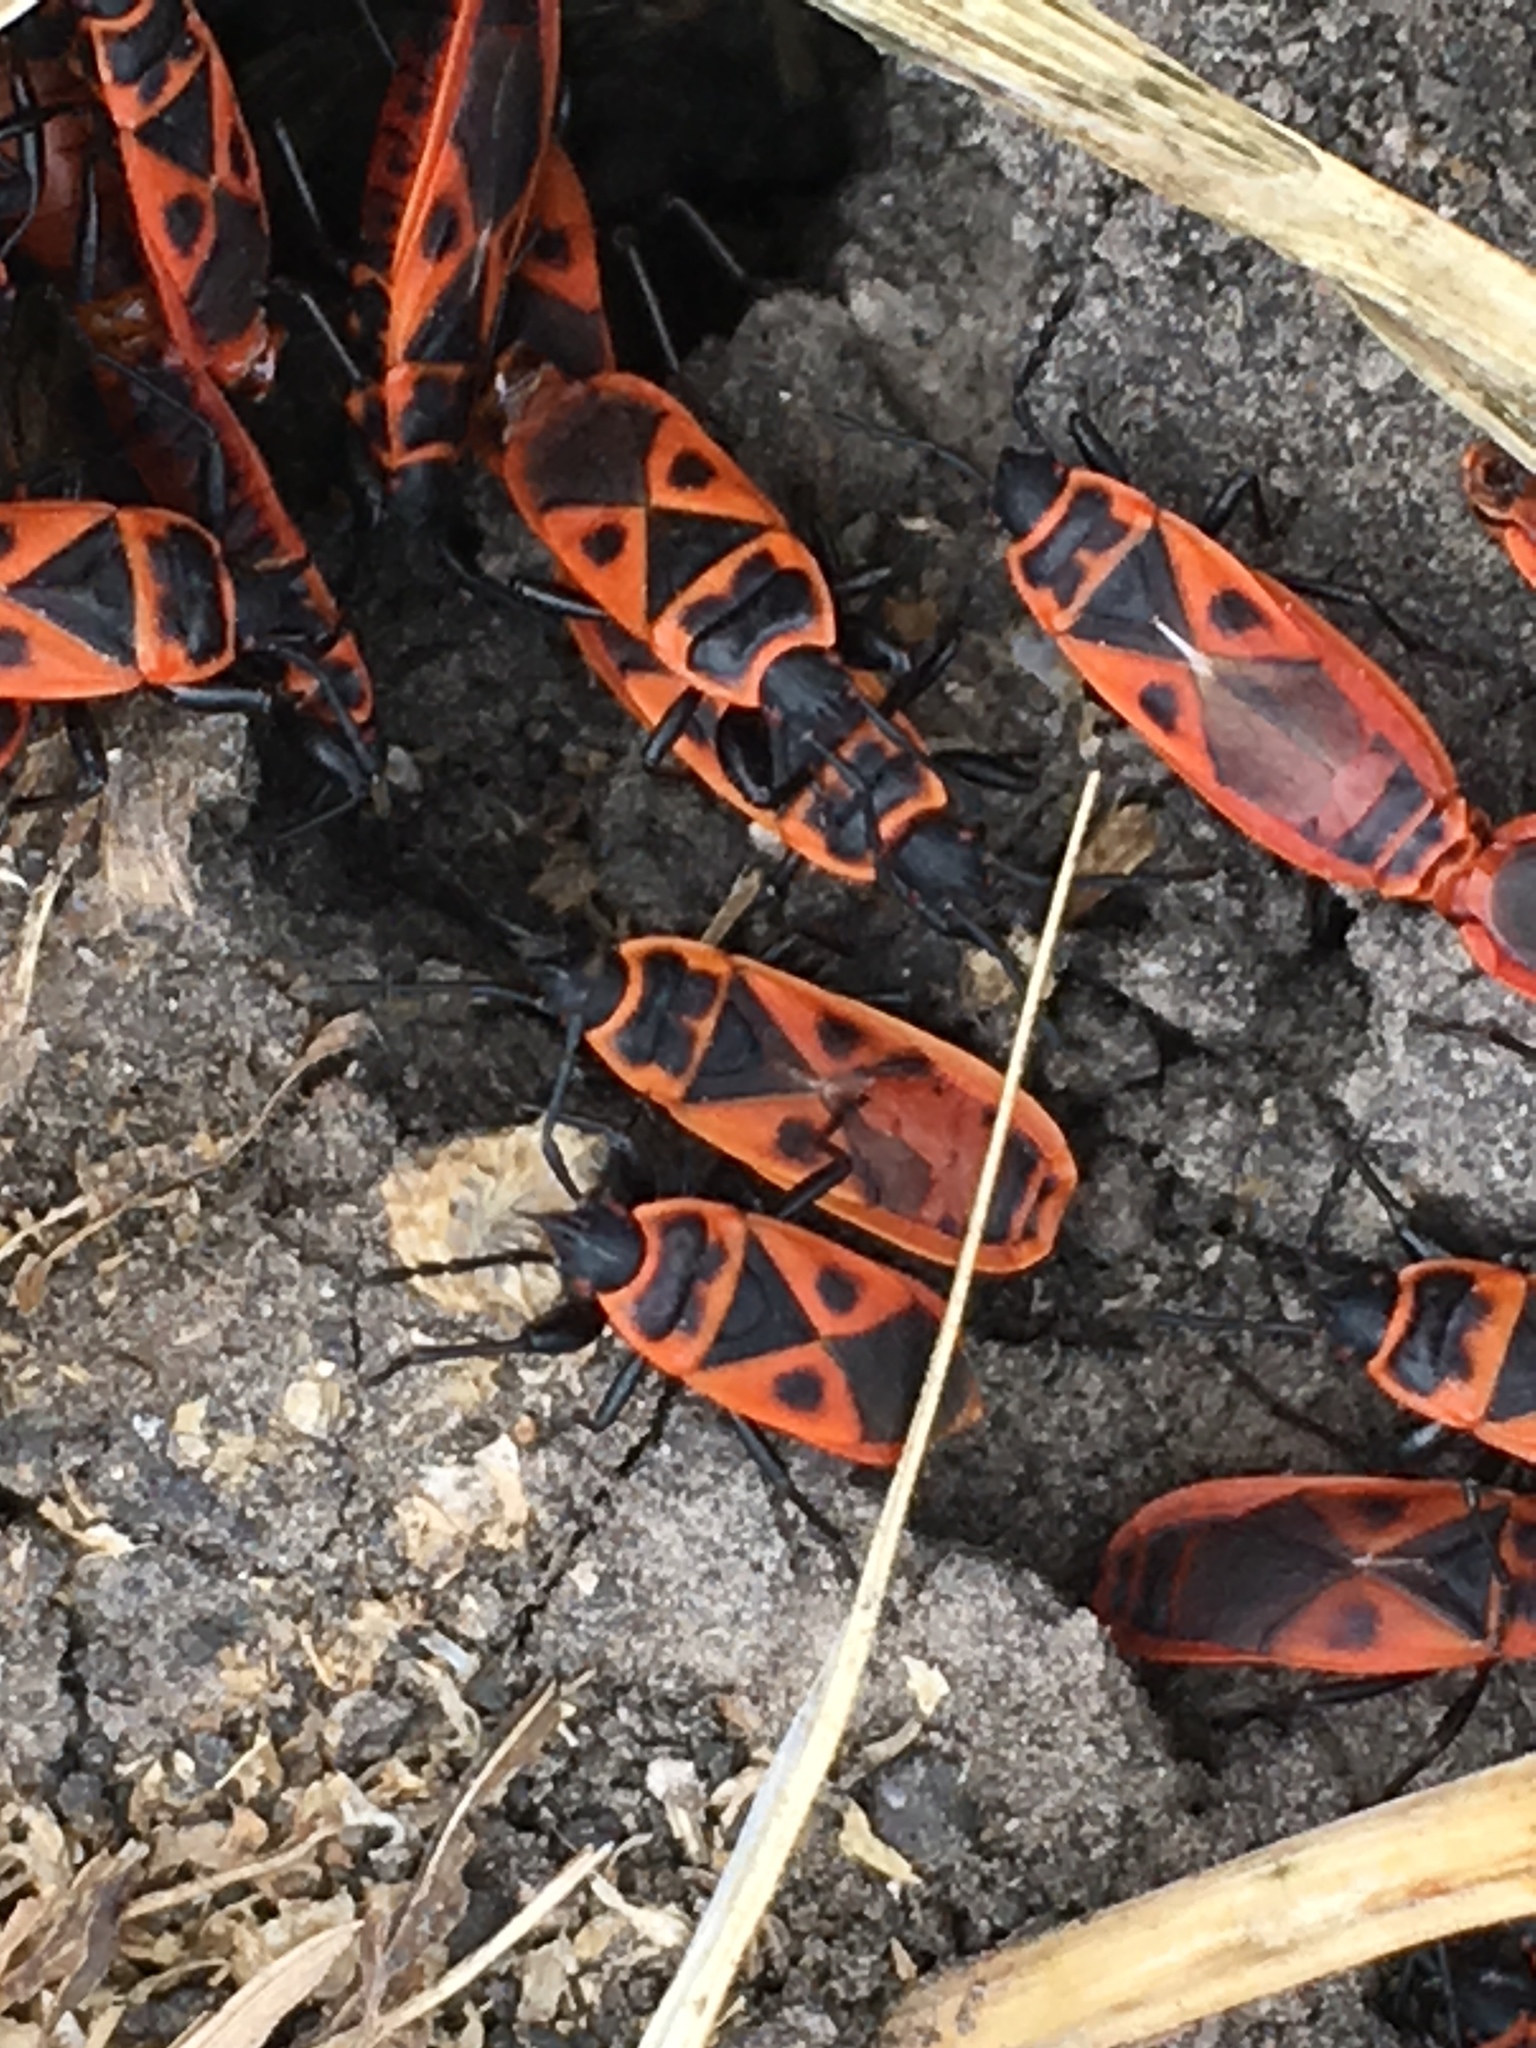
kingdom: Animalia
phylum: Arthropoda
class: Insecta
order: Hemiptera
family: Pyrrhocoridae
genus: Scantius
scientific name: Scantius aegyptius
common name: Red bug
